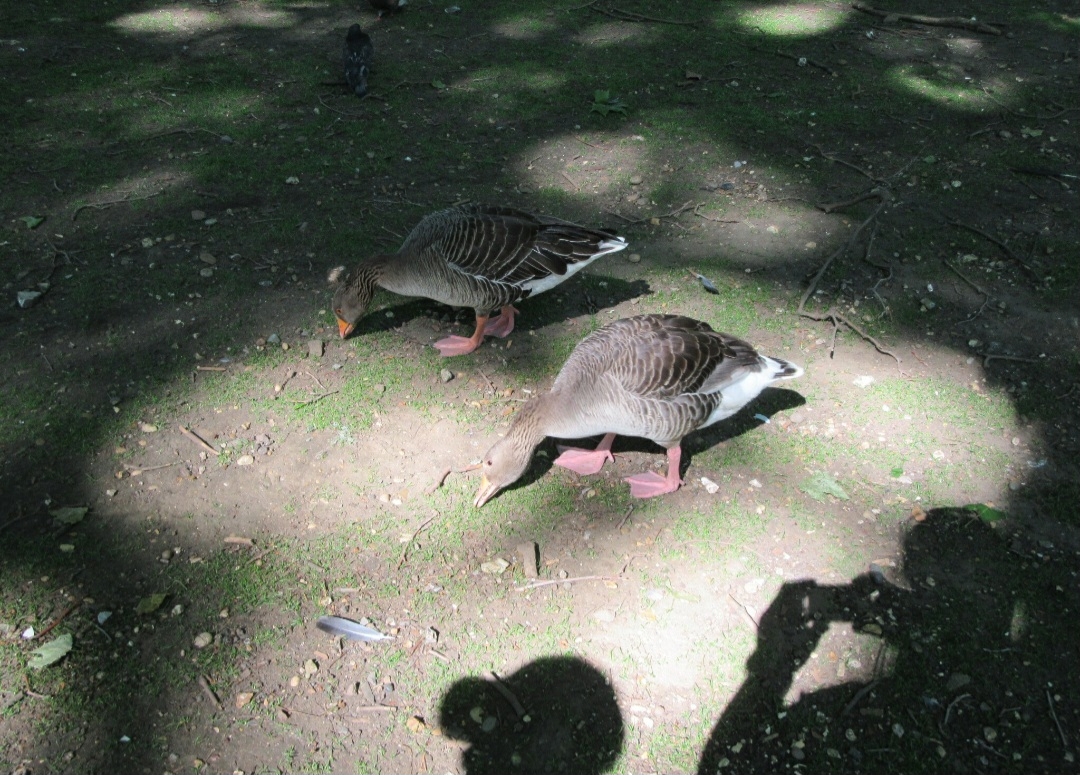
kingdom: Animalia
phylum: Chordata
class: Aves
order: Anseriformes
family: Anatidae
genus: Anser
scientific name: Anser anser
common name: Greylag goose
